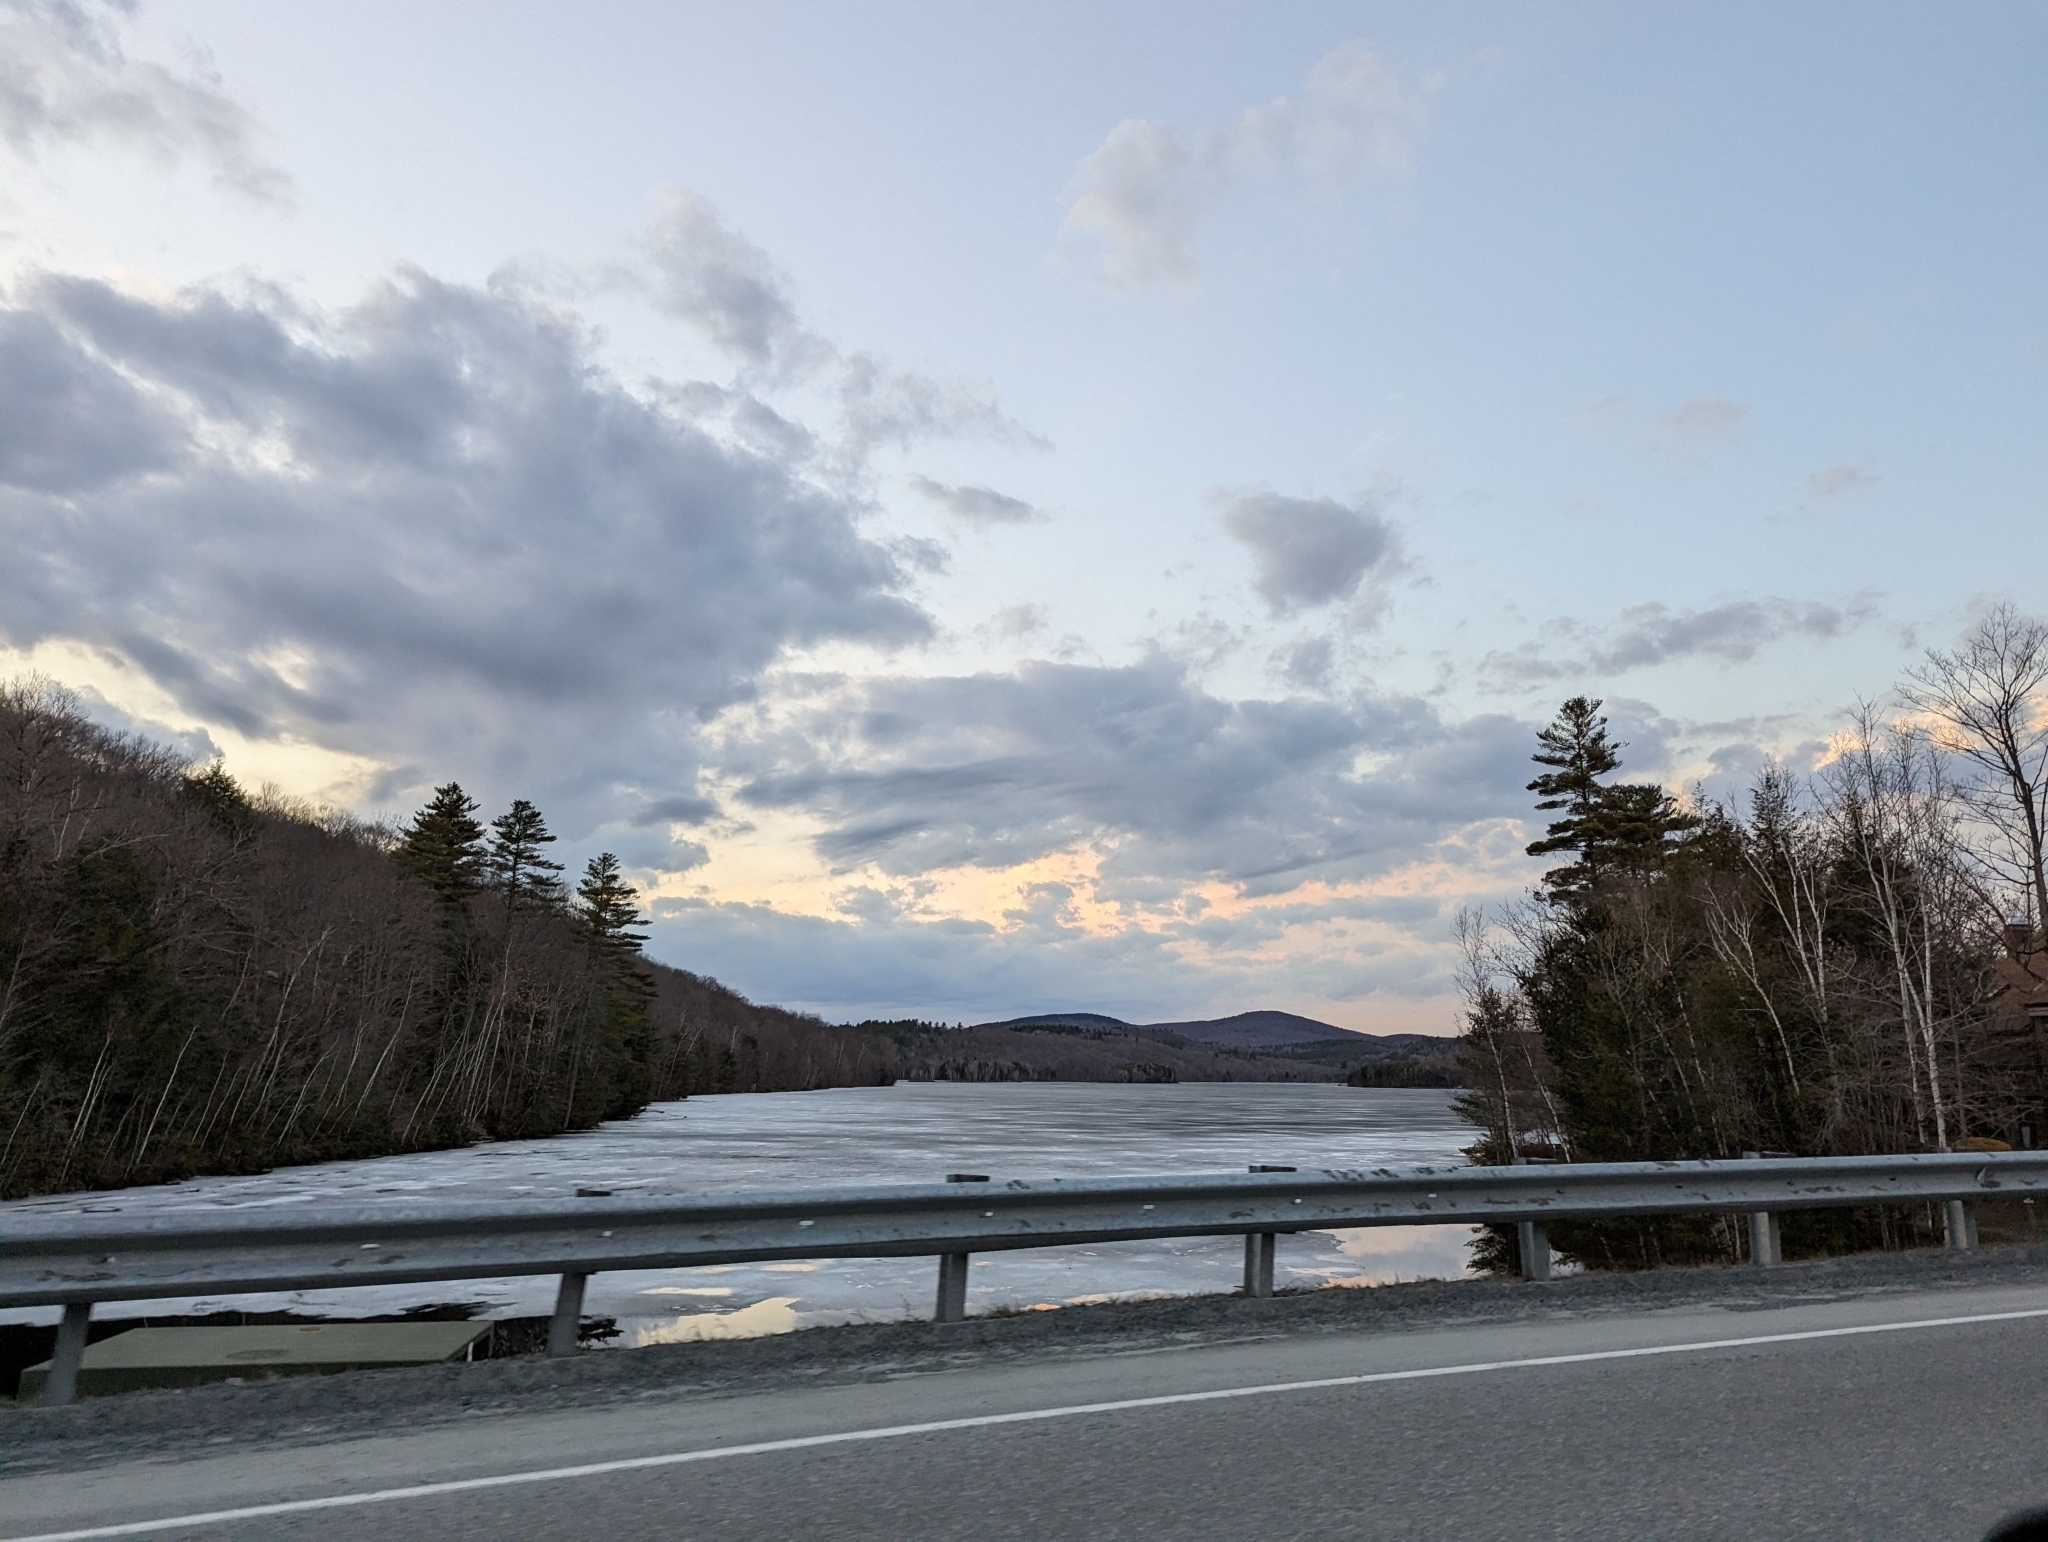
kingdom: Plantae
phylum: Tracheophyta
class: Pinopsida
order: Pinales
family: Pinaceae
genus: Pinus
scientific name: Pinus strobus
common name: Weymouth pine
